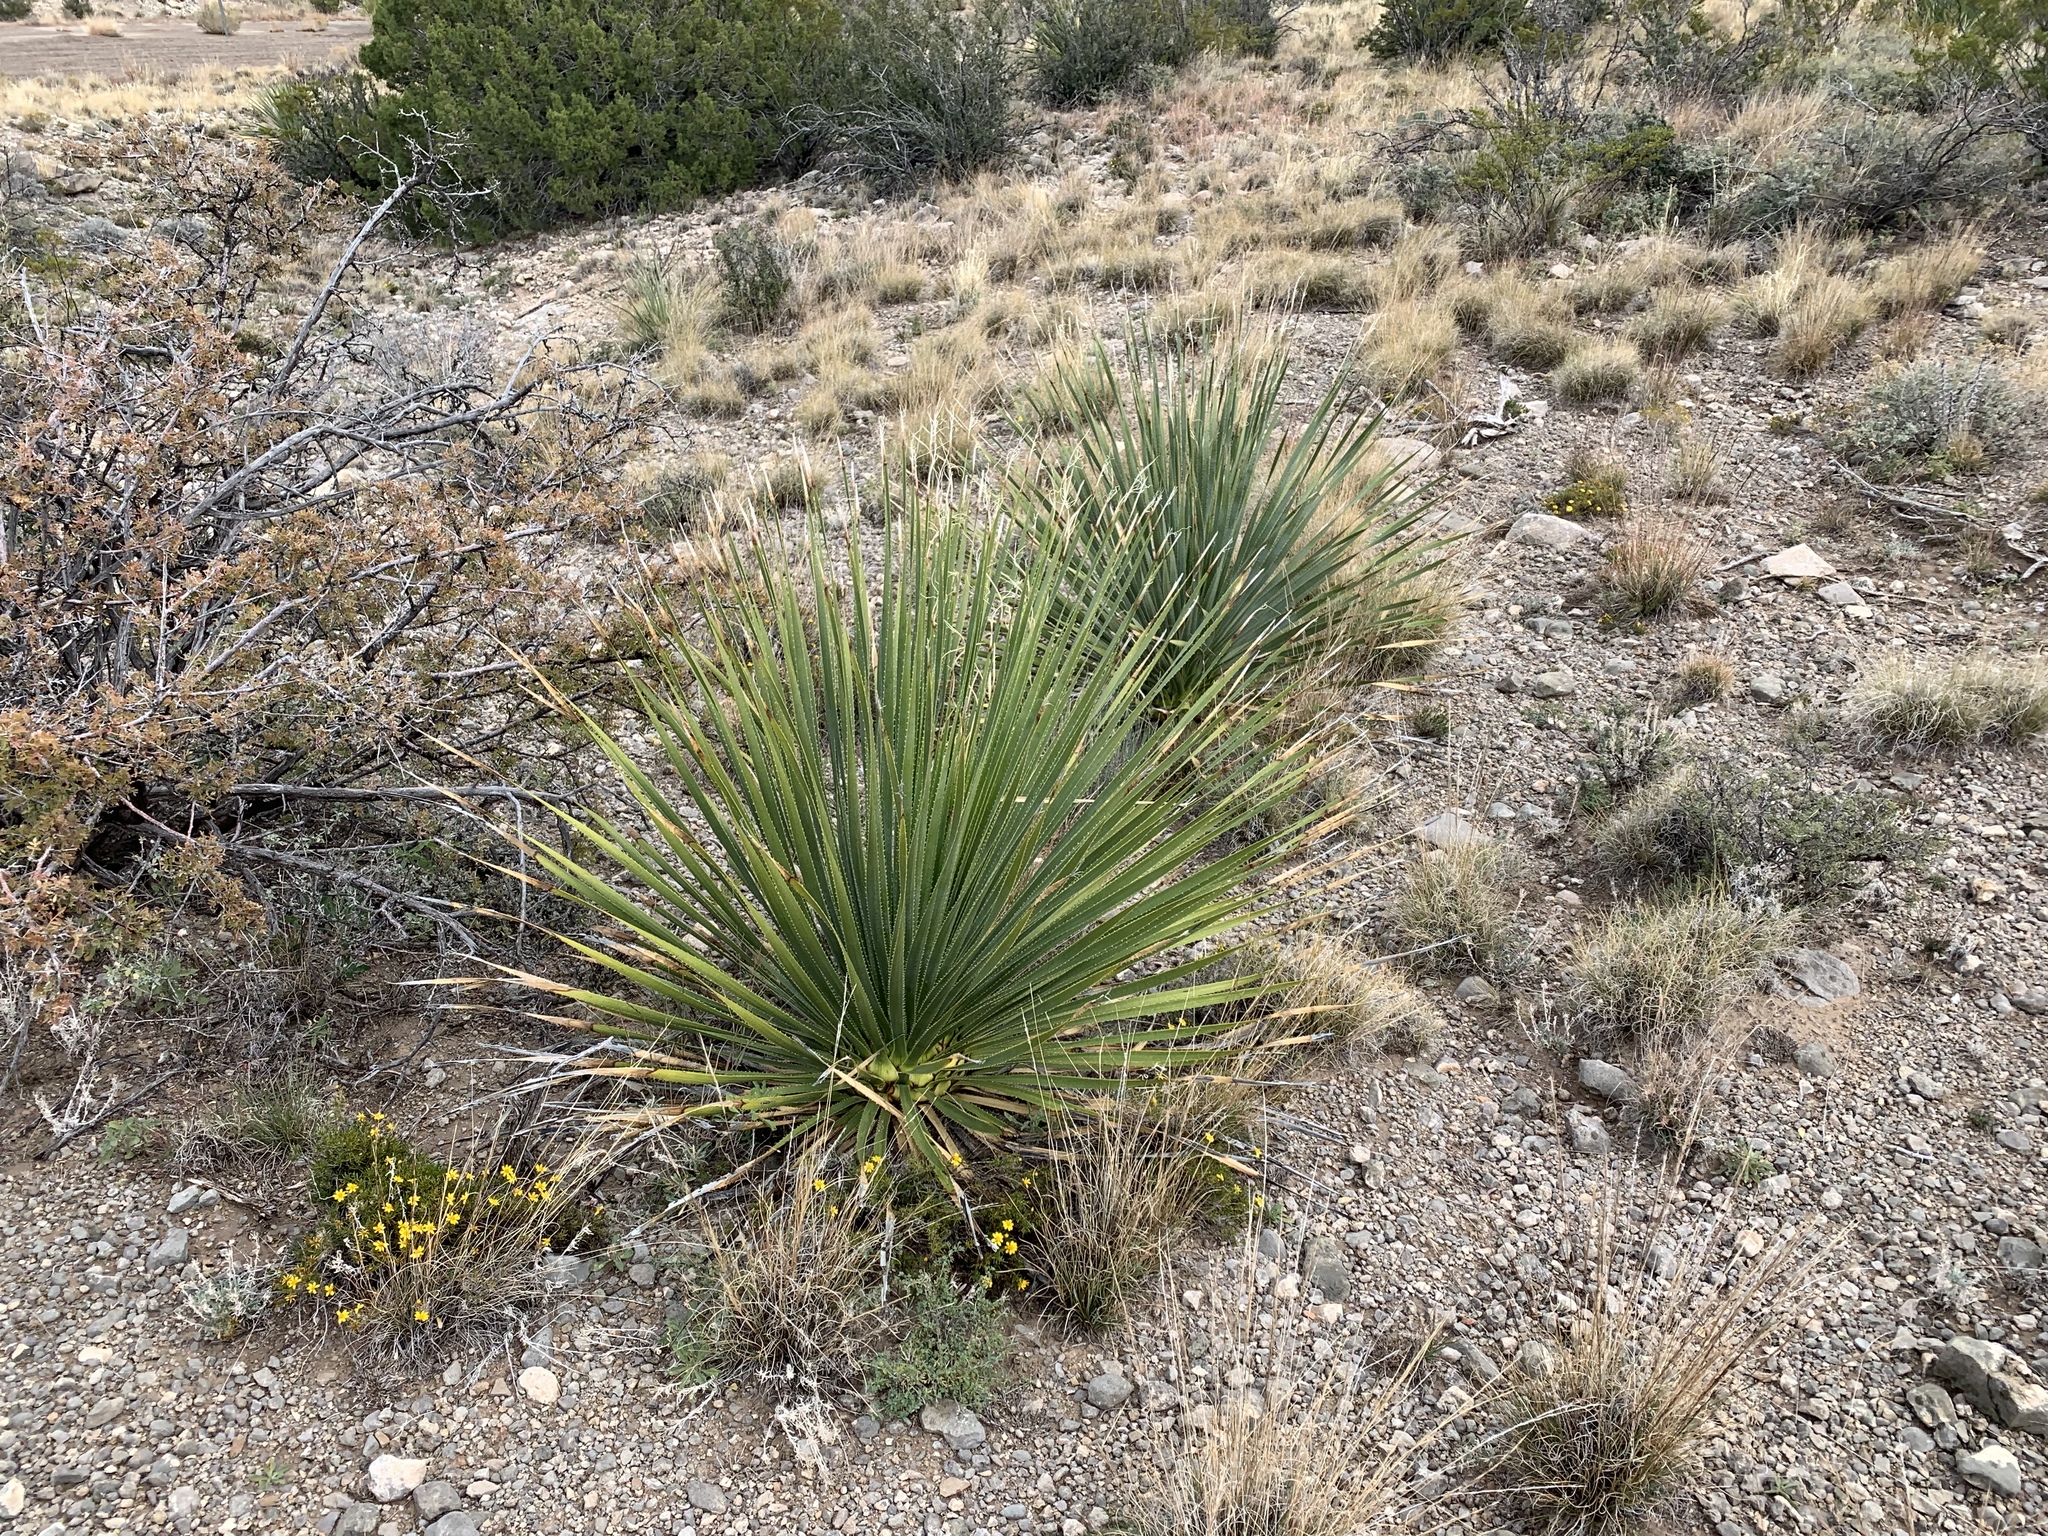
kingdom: Plantae
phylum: Tracheophyta
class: Liliopsida
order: Asparagales
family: Asparagaceae
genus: Dasylirion
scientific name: Dasylirion wheeleri
